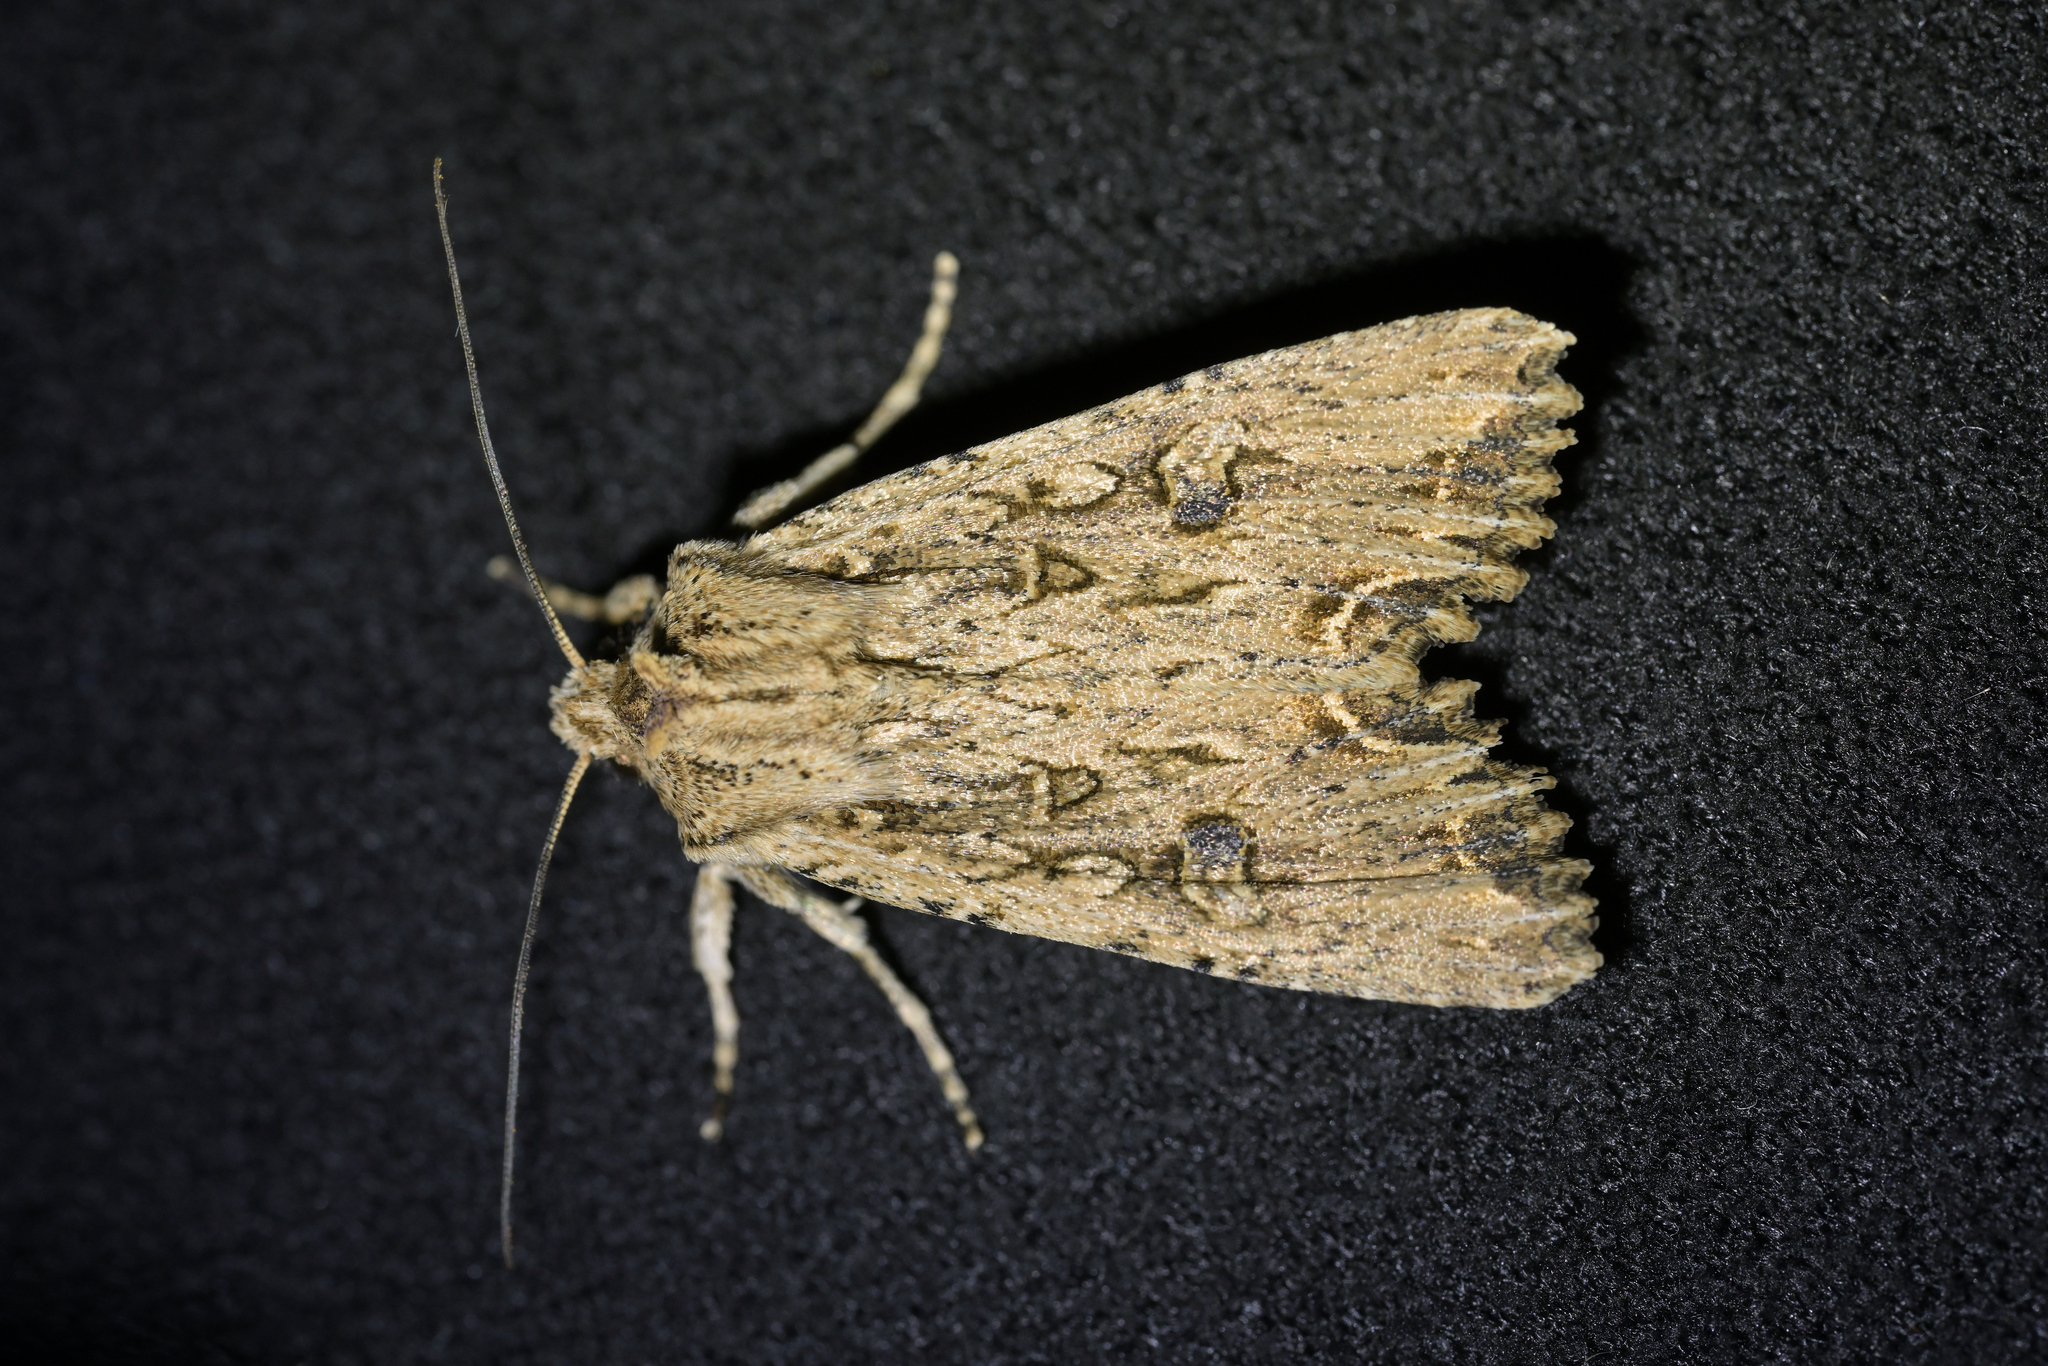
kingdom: Animalia
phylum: Arthropoda
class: Insecta
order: Lepidoptera
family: Noctuidae
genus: Ichneutica
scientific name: Ichneutica lignana
